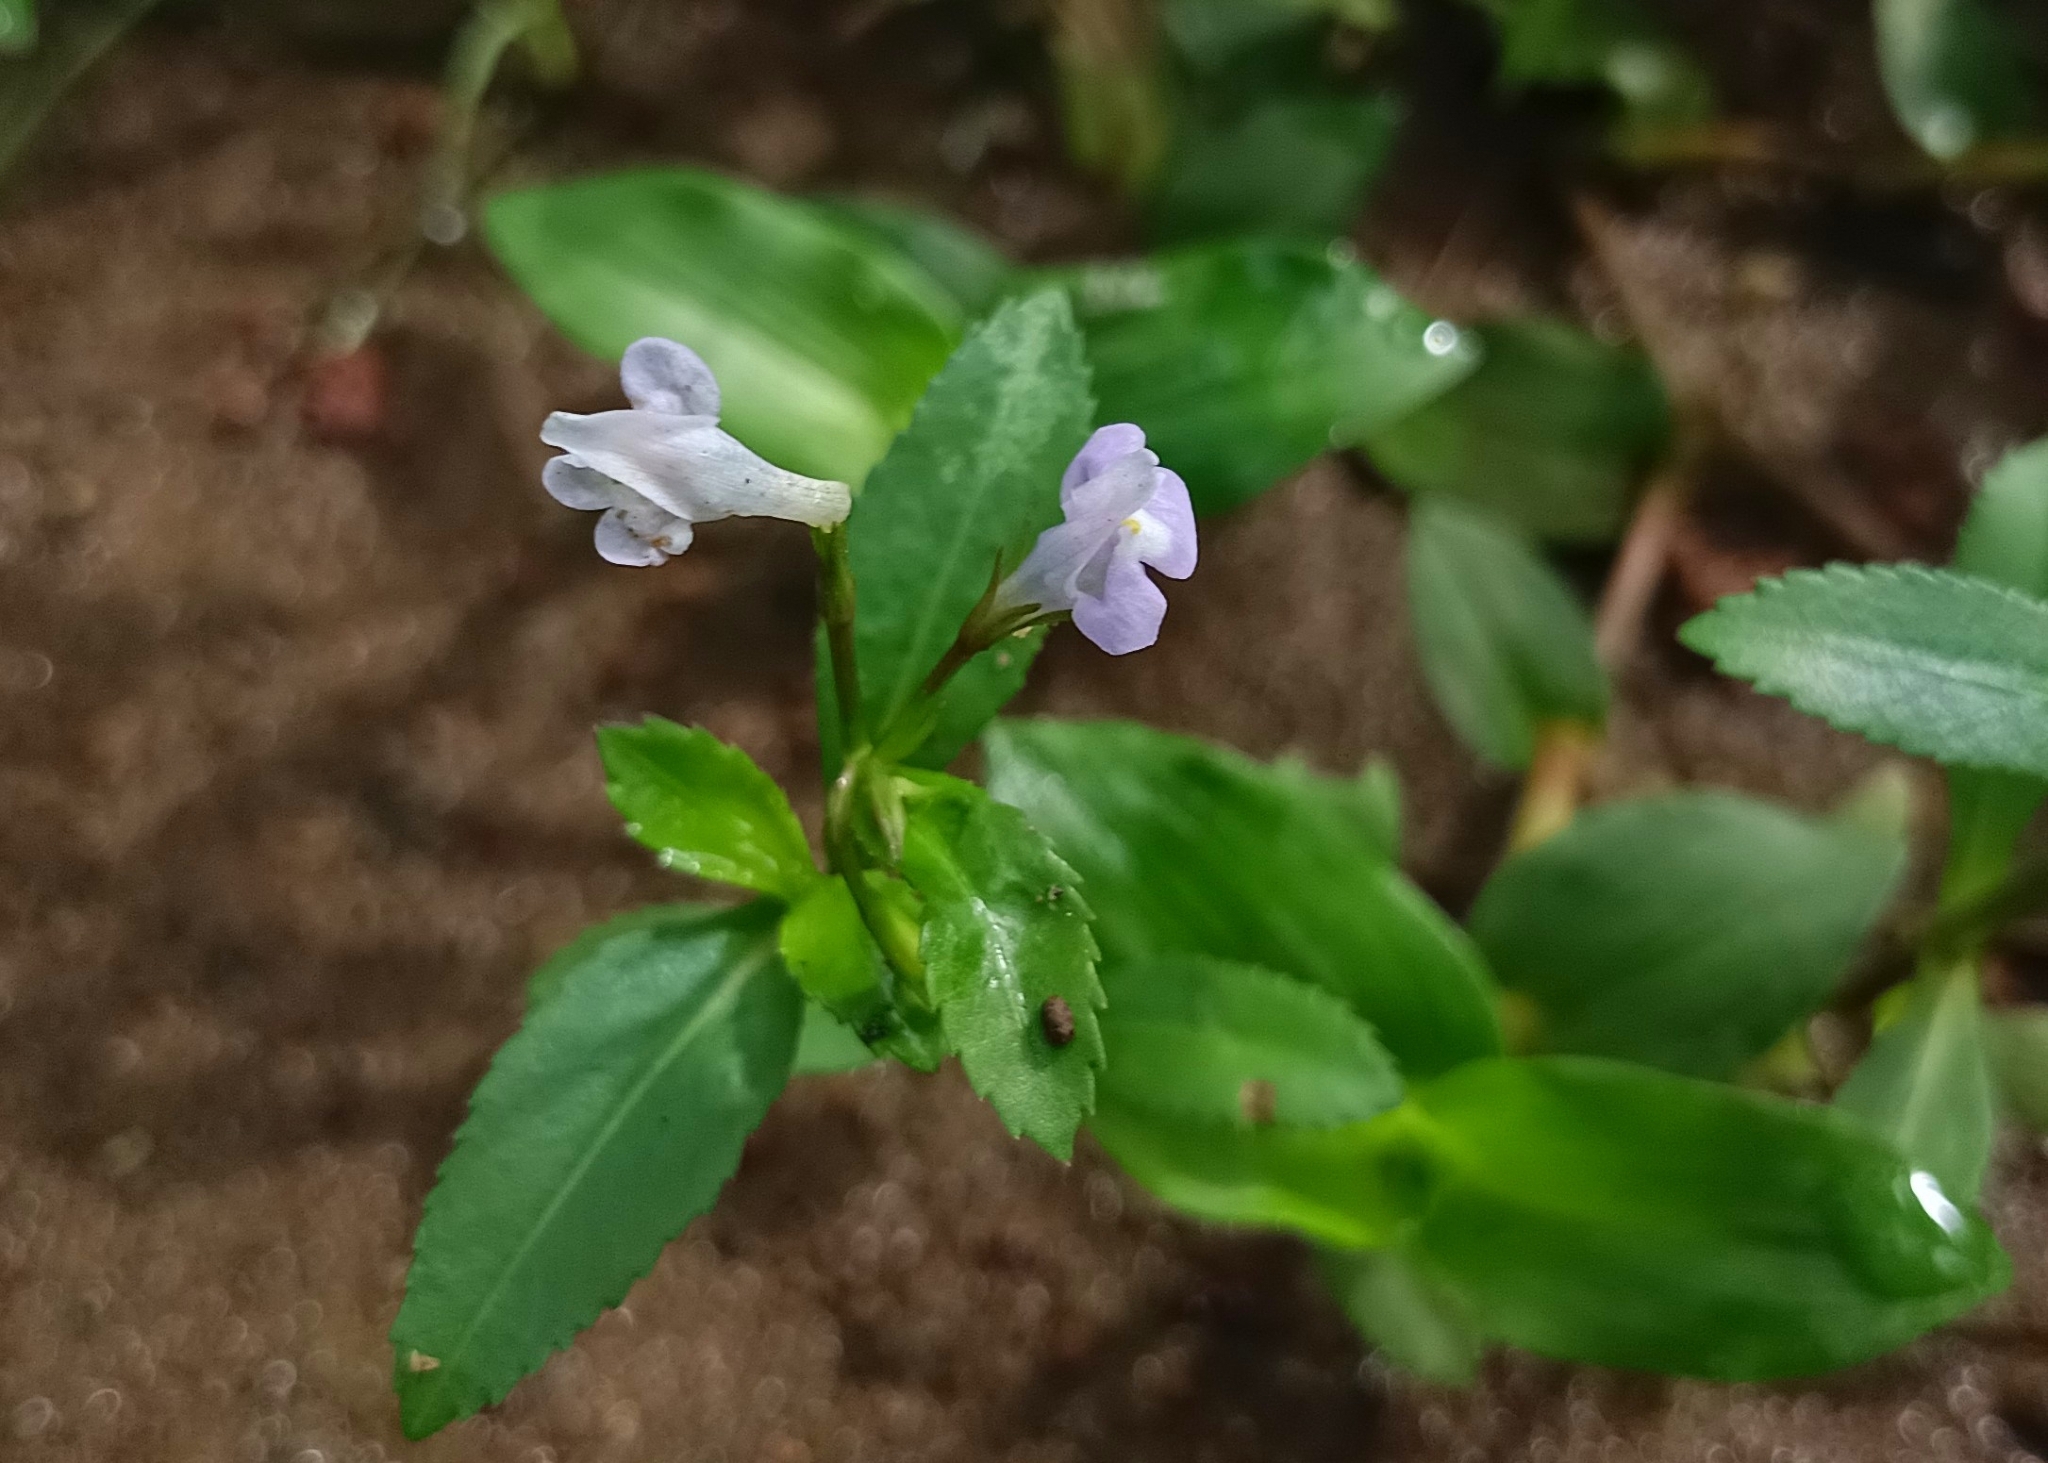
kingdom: Plantae
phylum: Tracheophyta
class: Magnoliopsida
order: Lamiales
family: Linderniaceae
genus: Bonnaya
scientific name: Bonnaya sanpabloensis
